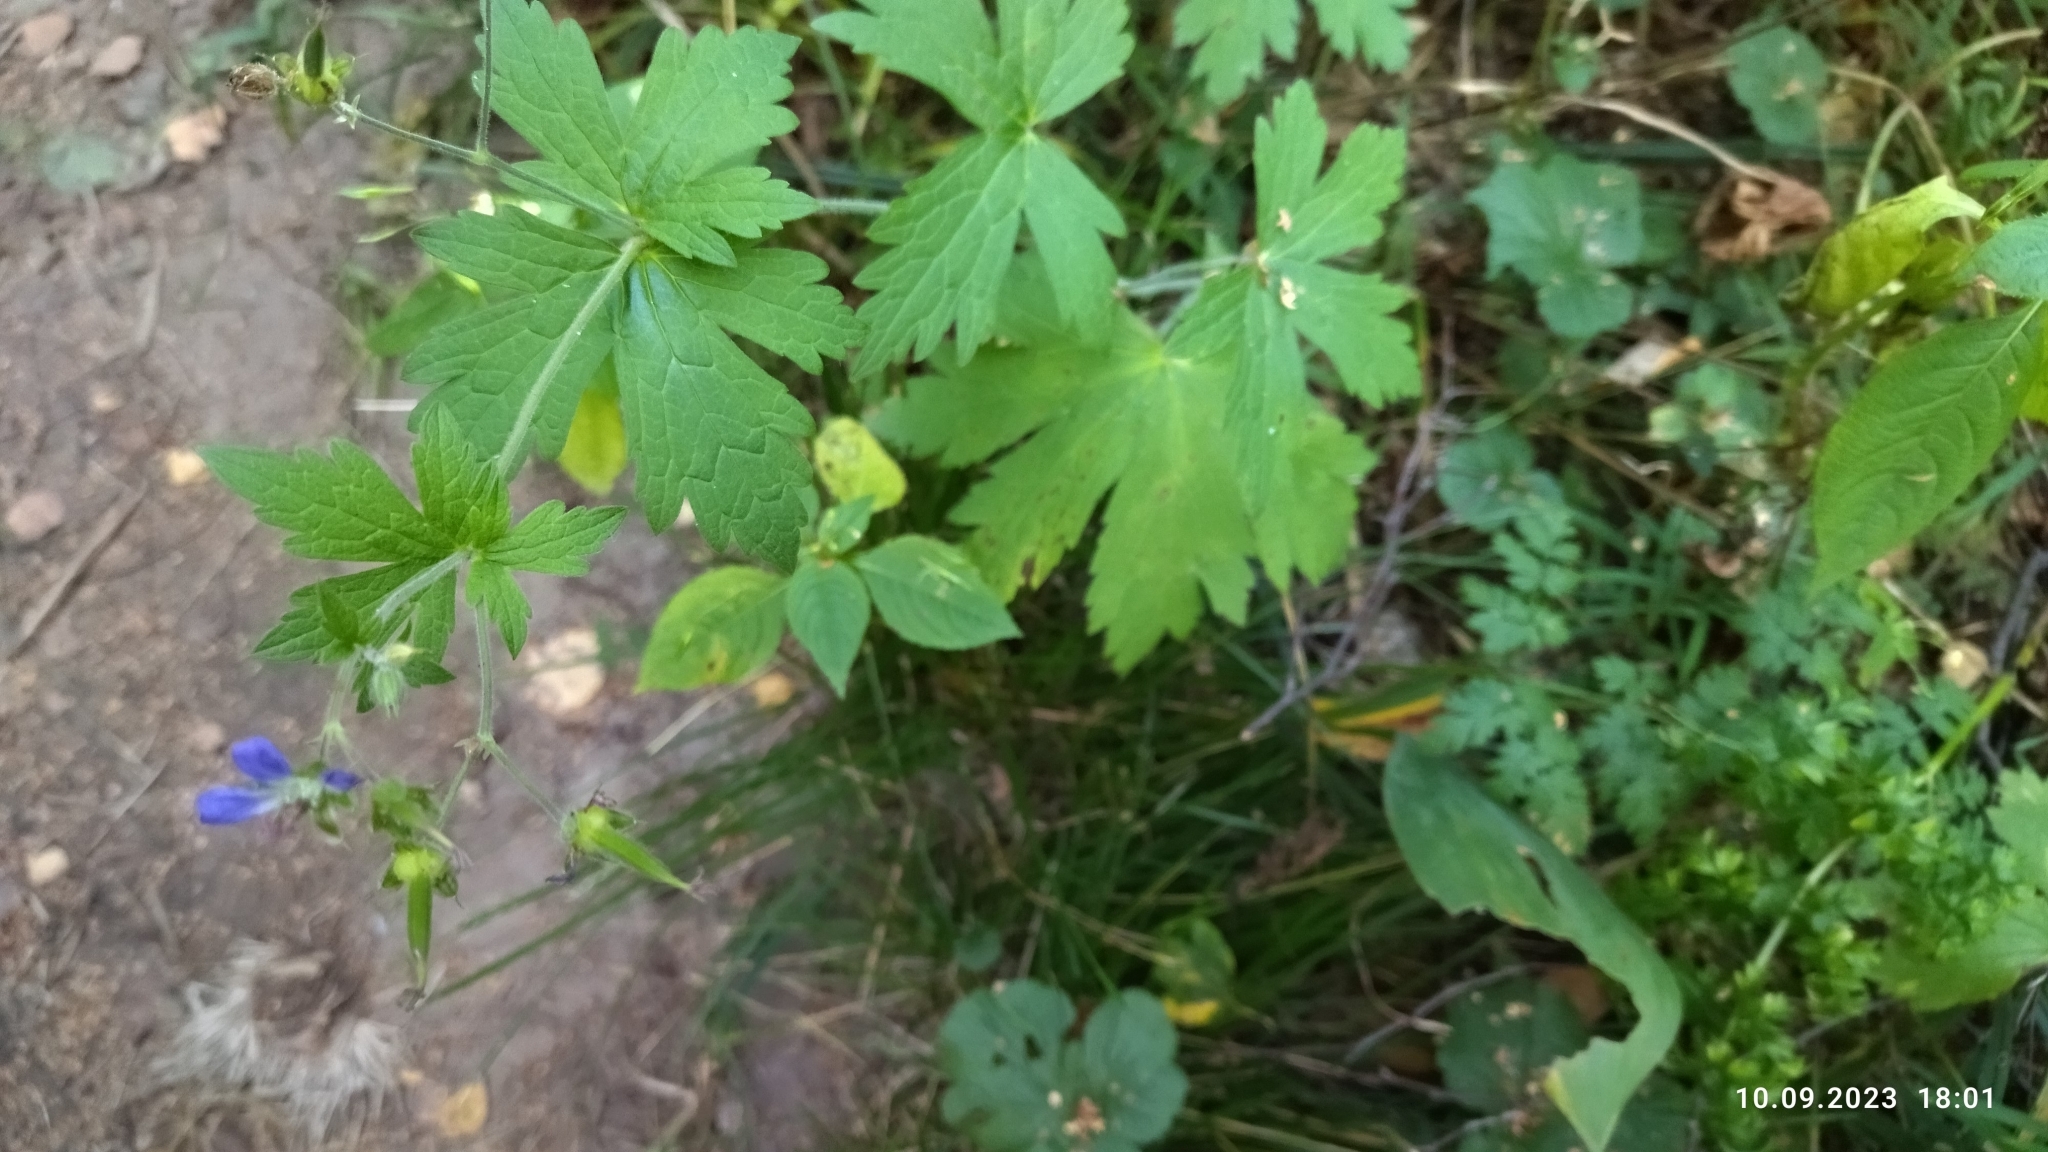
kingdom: Plantae
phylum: Tracheophyta
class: Magnoliopsida
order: Geraniales
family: Geraniaceae
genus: Geranium
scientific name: Geranium sylvaticum
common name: Wood crane's-bill
